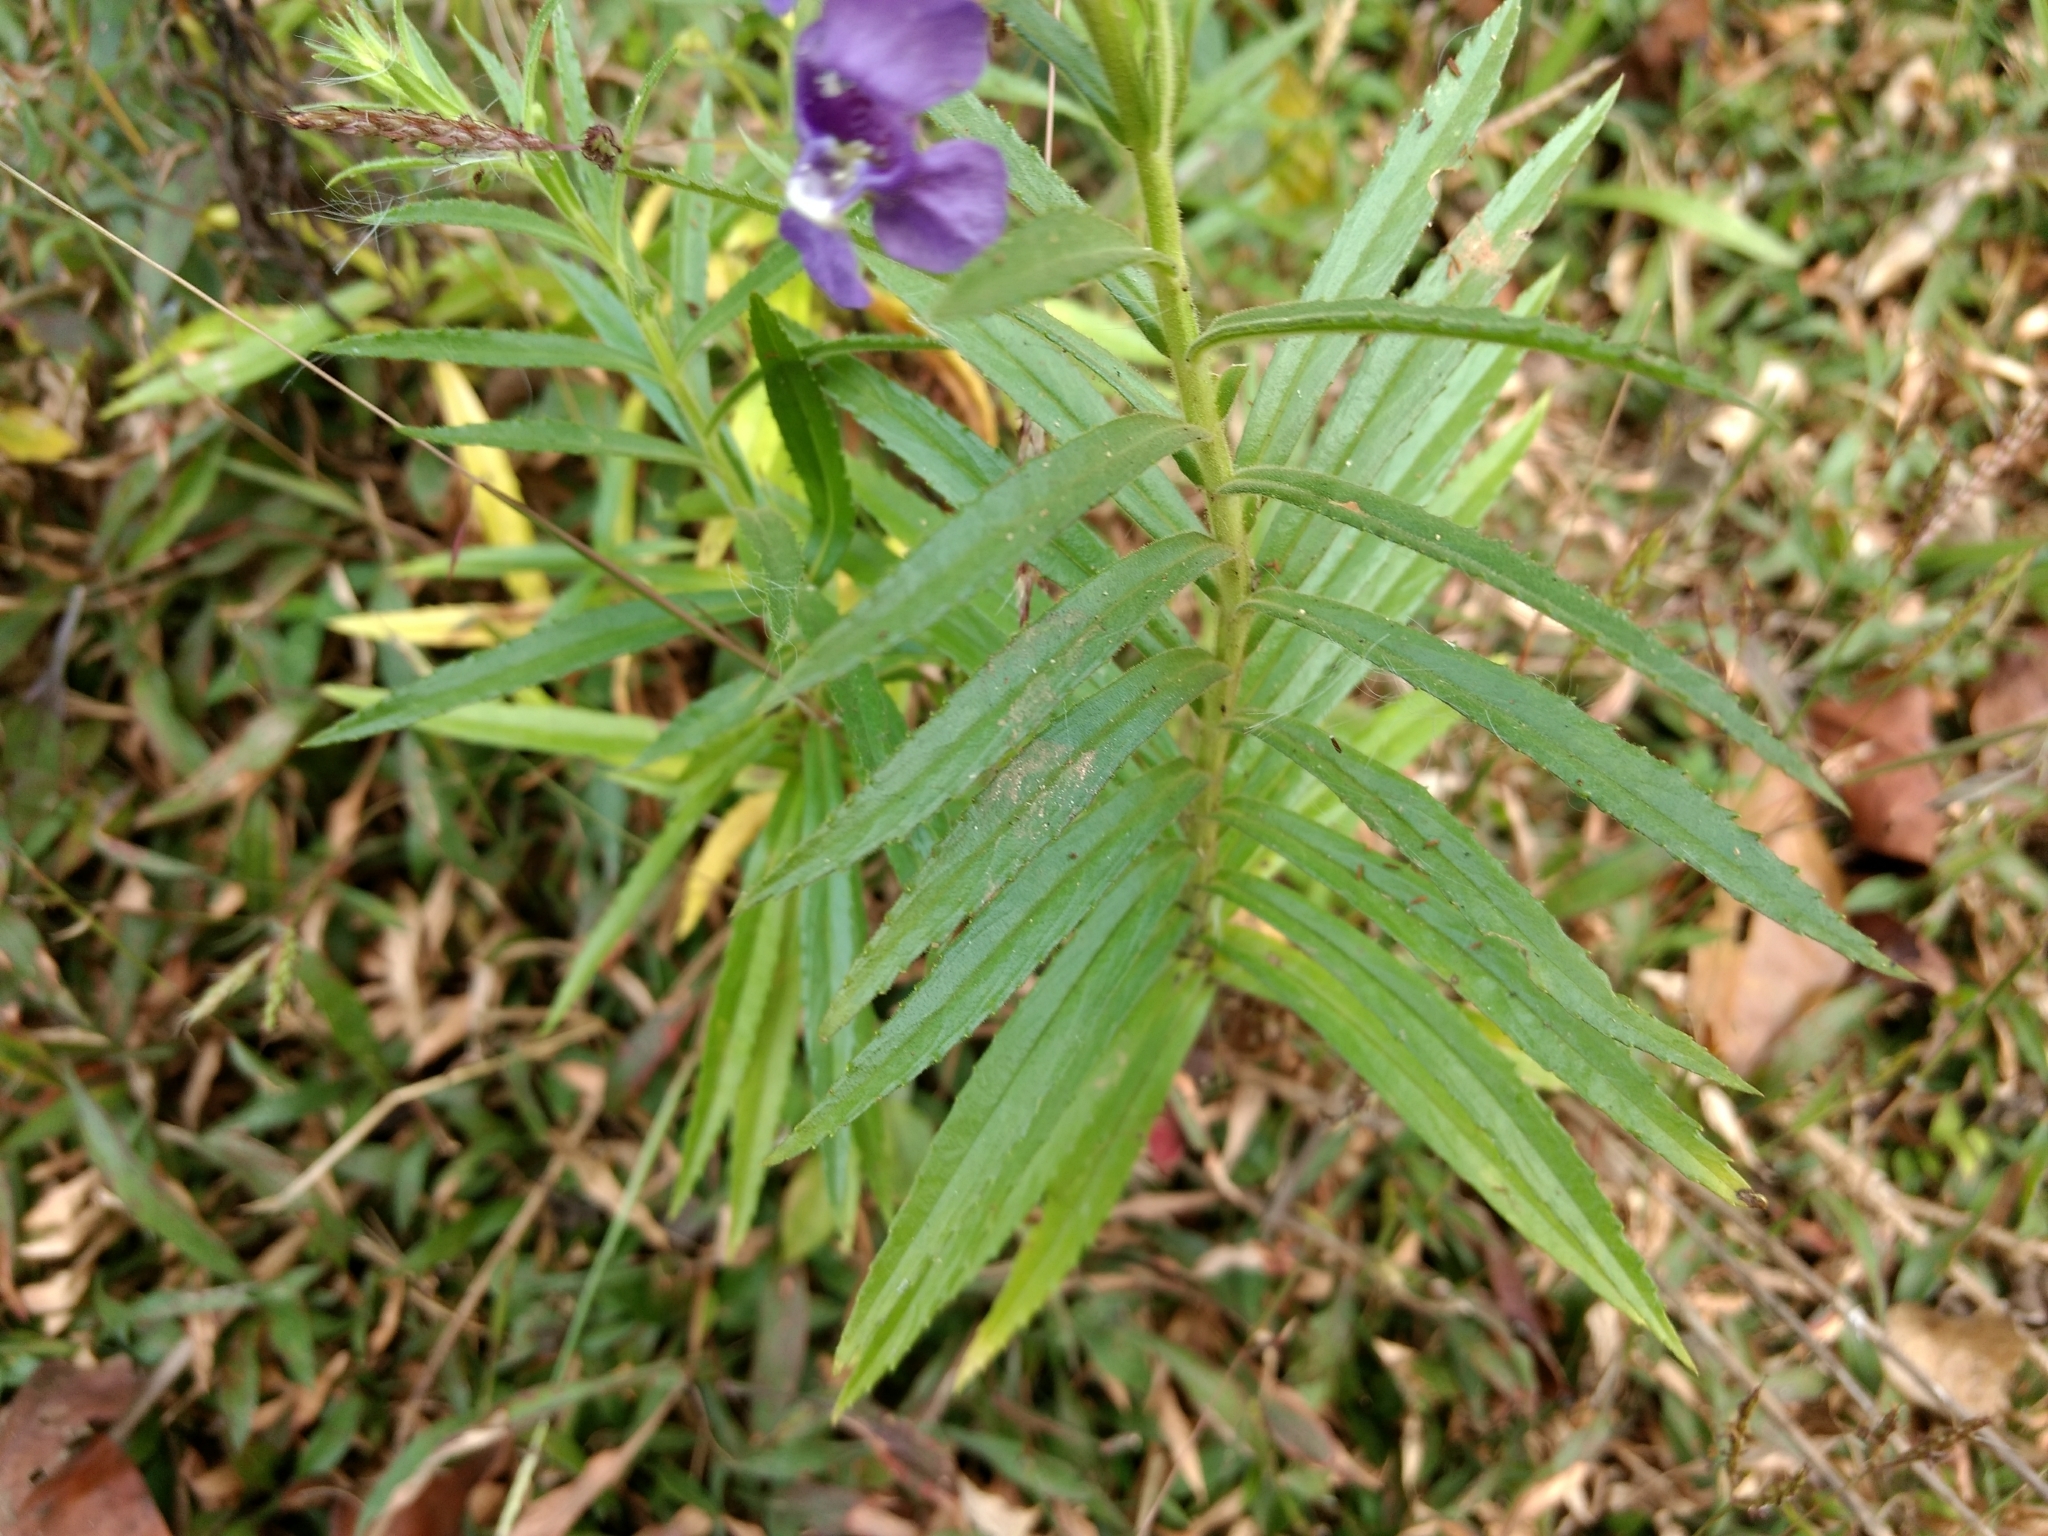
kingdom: Plantae
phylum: Tracheophyta
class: Magnoliopsida
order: Lamiales
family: Plantaginaceae
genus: Angelonia
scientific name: Angelonia angustifolia
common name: Narrowleaf angelon
